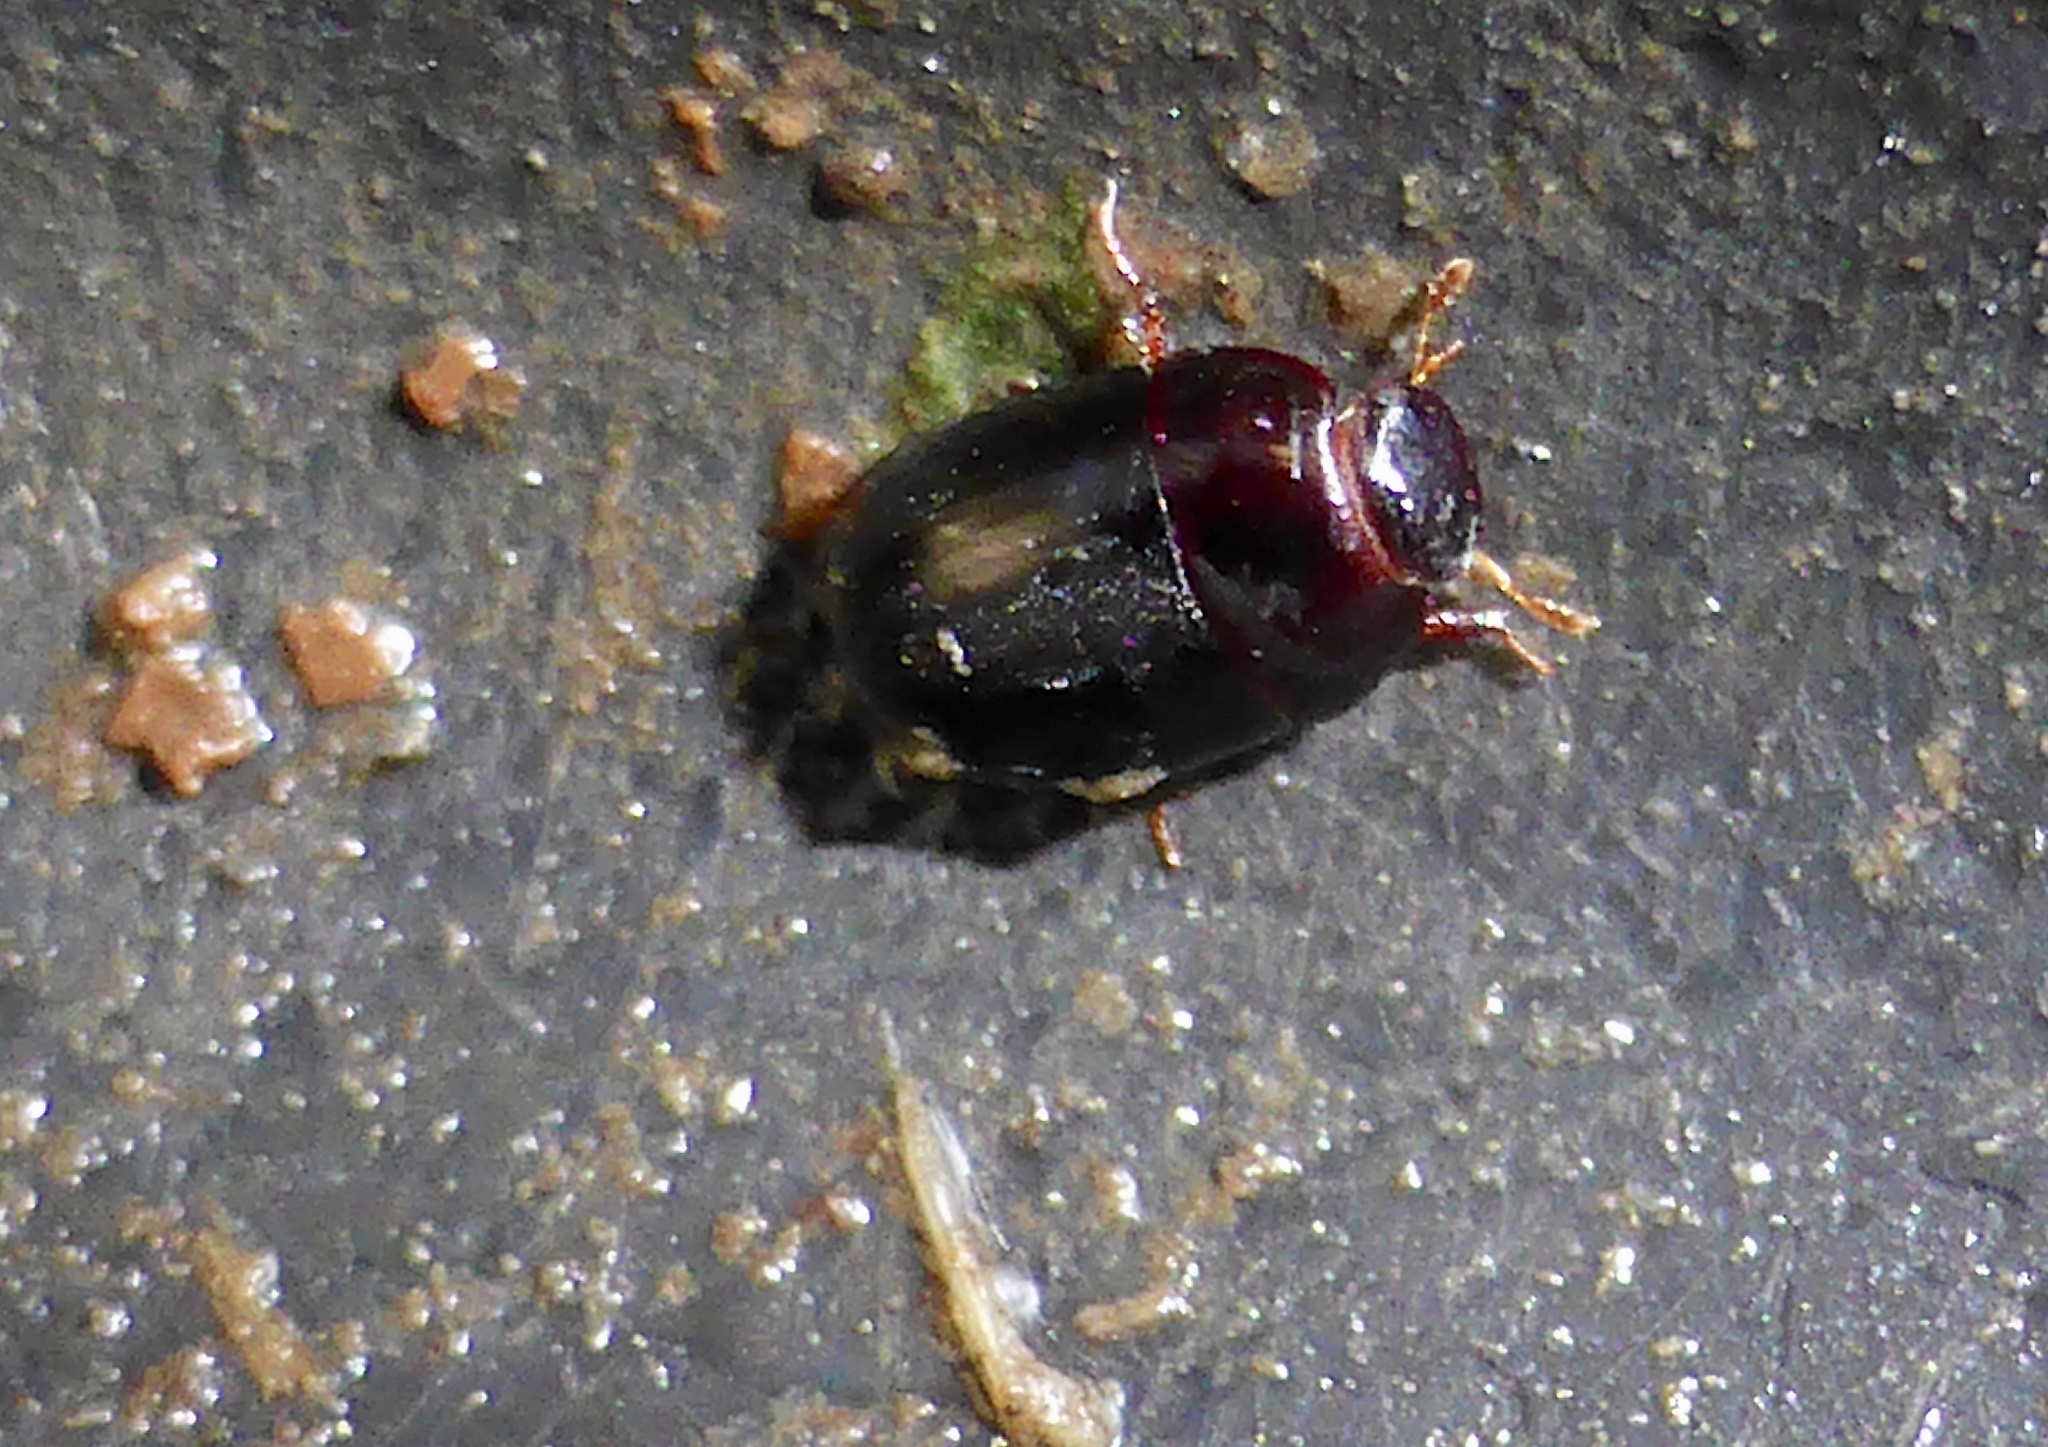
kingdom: Animalia
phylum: Arthropoda
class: Insecta
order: Coleoptera
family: Hydrophilidae
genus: Dactylosternum
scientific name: Dactylosternum abdominale
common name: Water scavenger beetle
